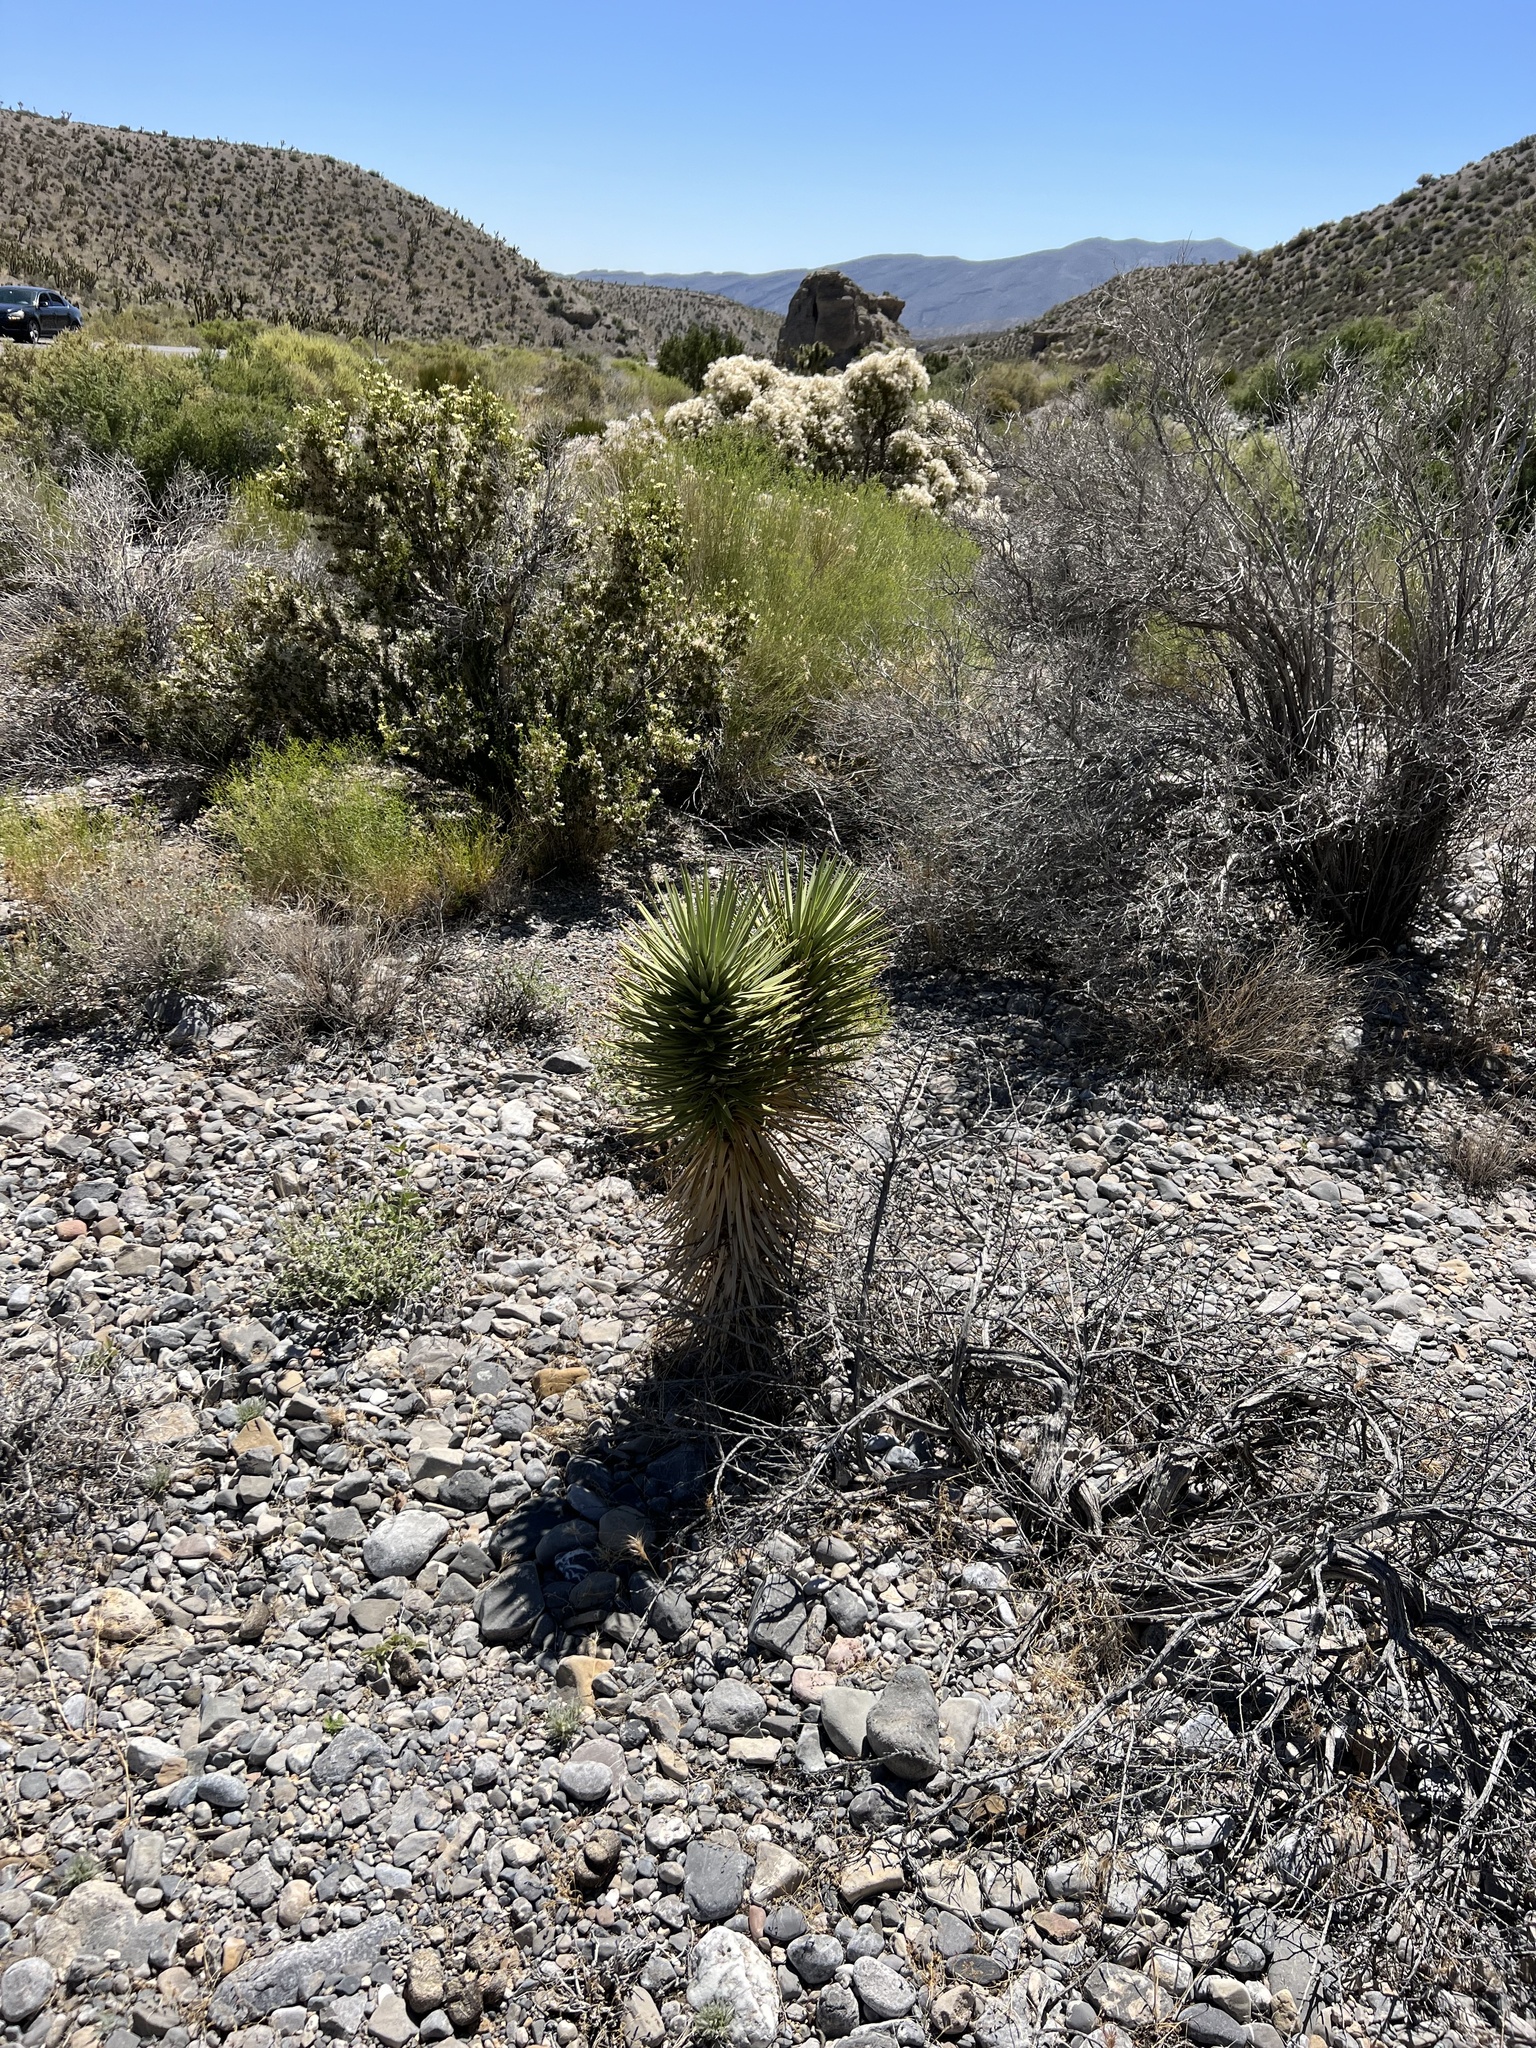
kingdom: Plantae
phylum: Tracheophyta
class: Liliopsida
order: Asparagales
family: Asparagaceae
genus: Yucca
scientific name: Yucca brevifolia
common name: Joshua tree
